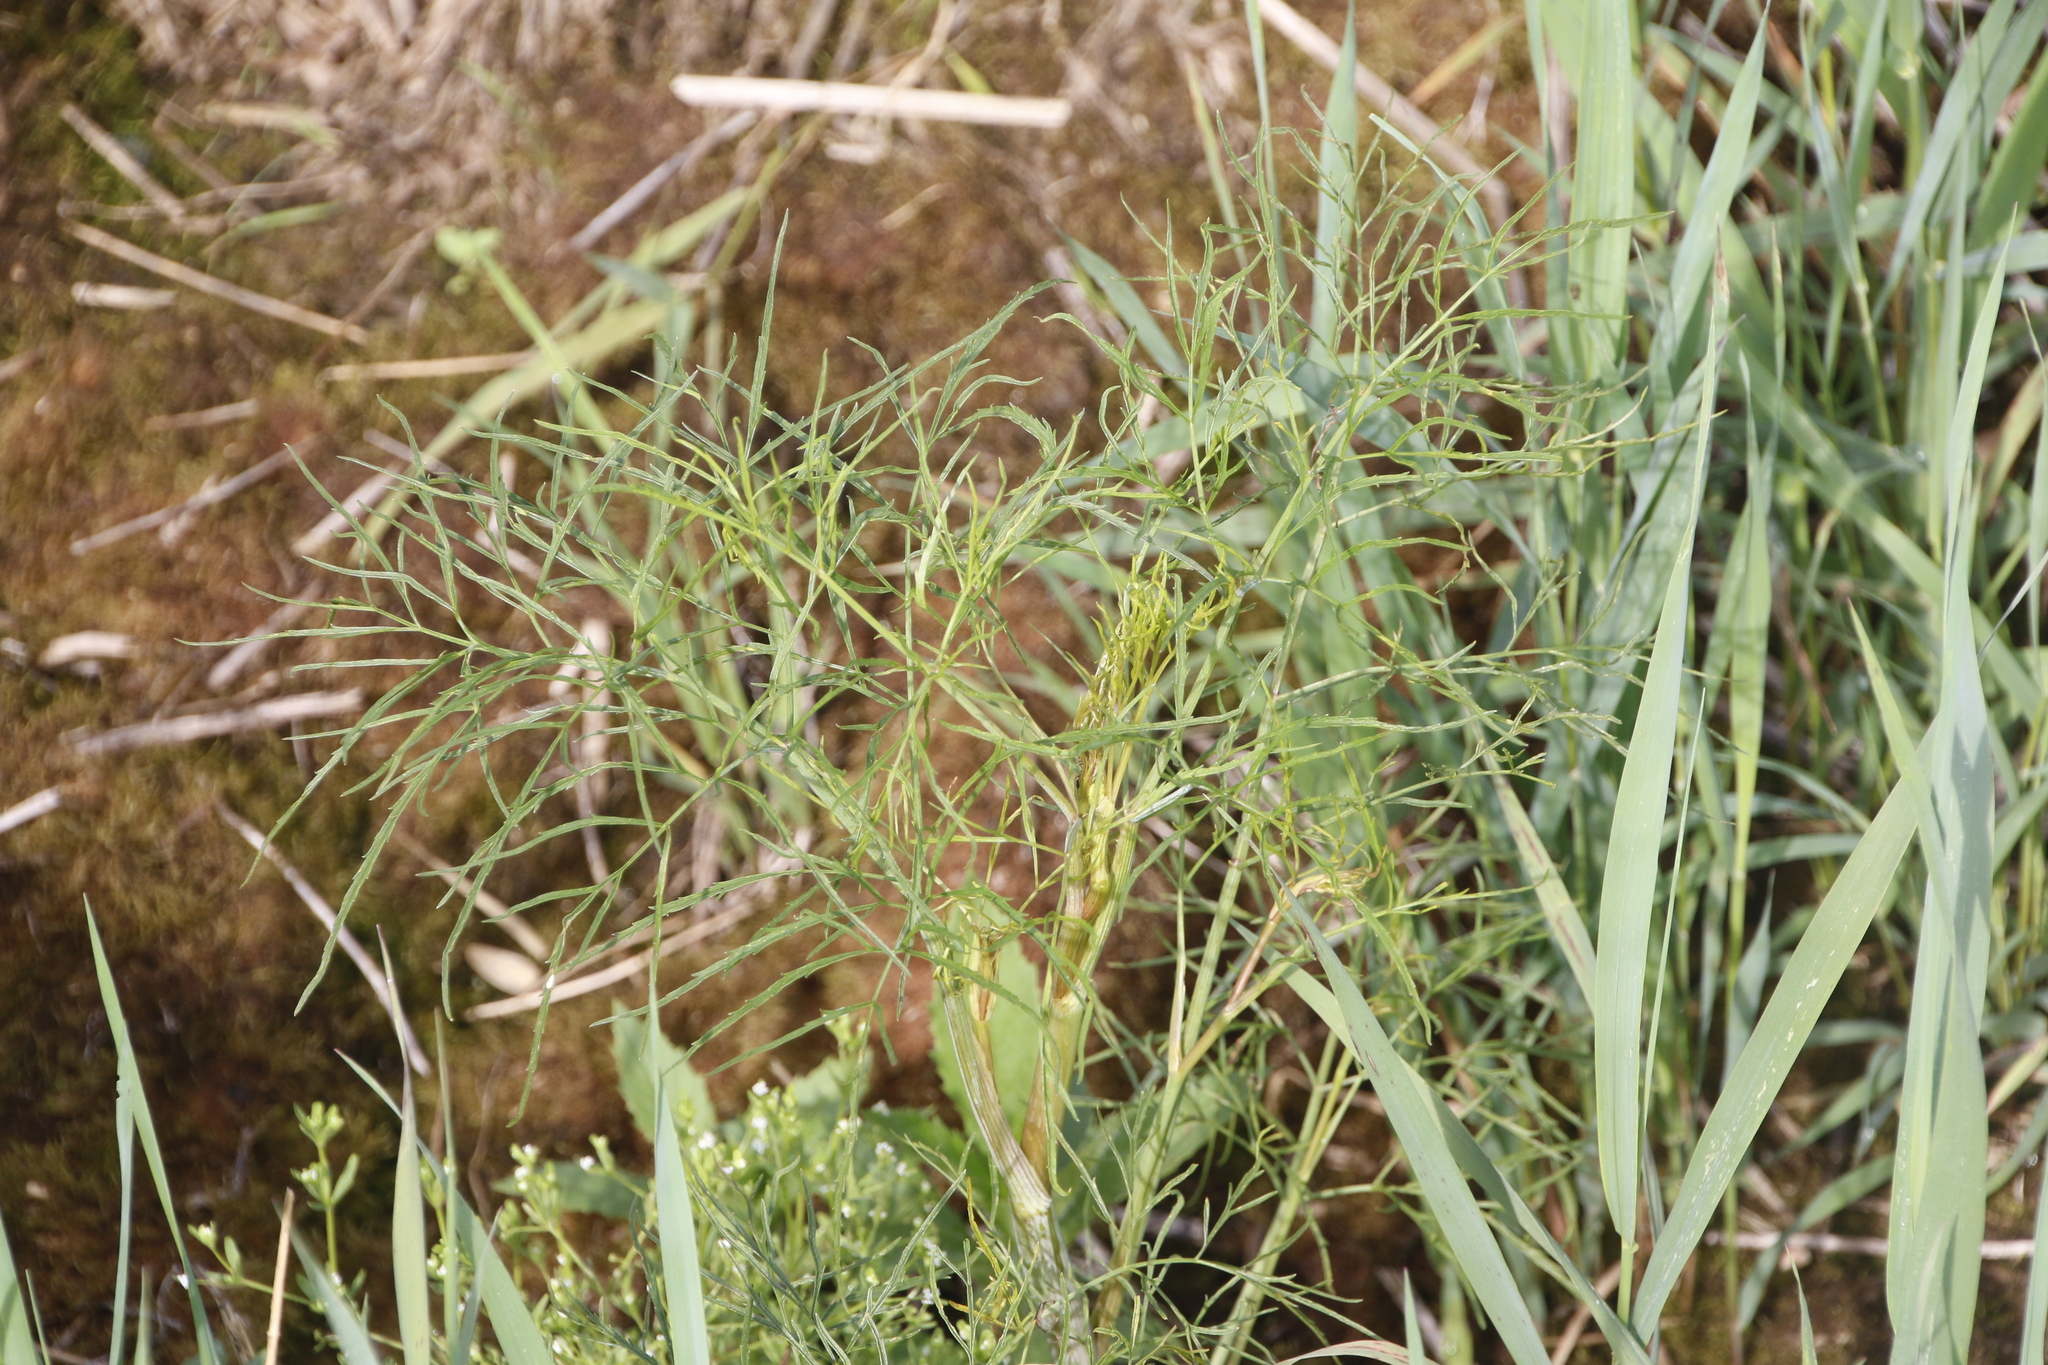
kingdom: Plantae
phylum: Tracheophyta
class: Magnoliopsida
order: Apiales
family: Apiaceae
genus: Cicuta
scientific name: Cicuta bulbifera
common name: Bulb-bearing water-hemlock
